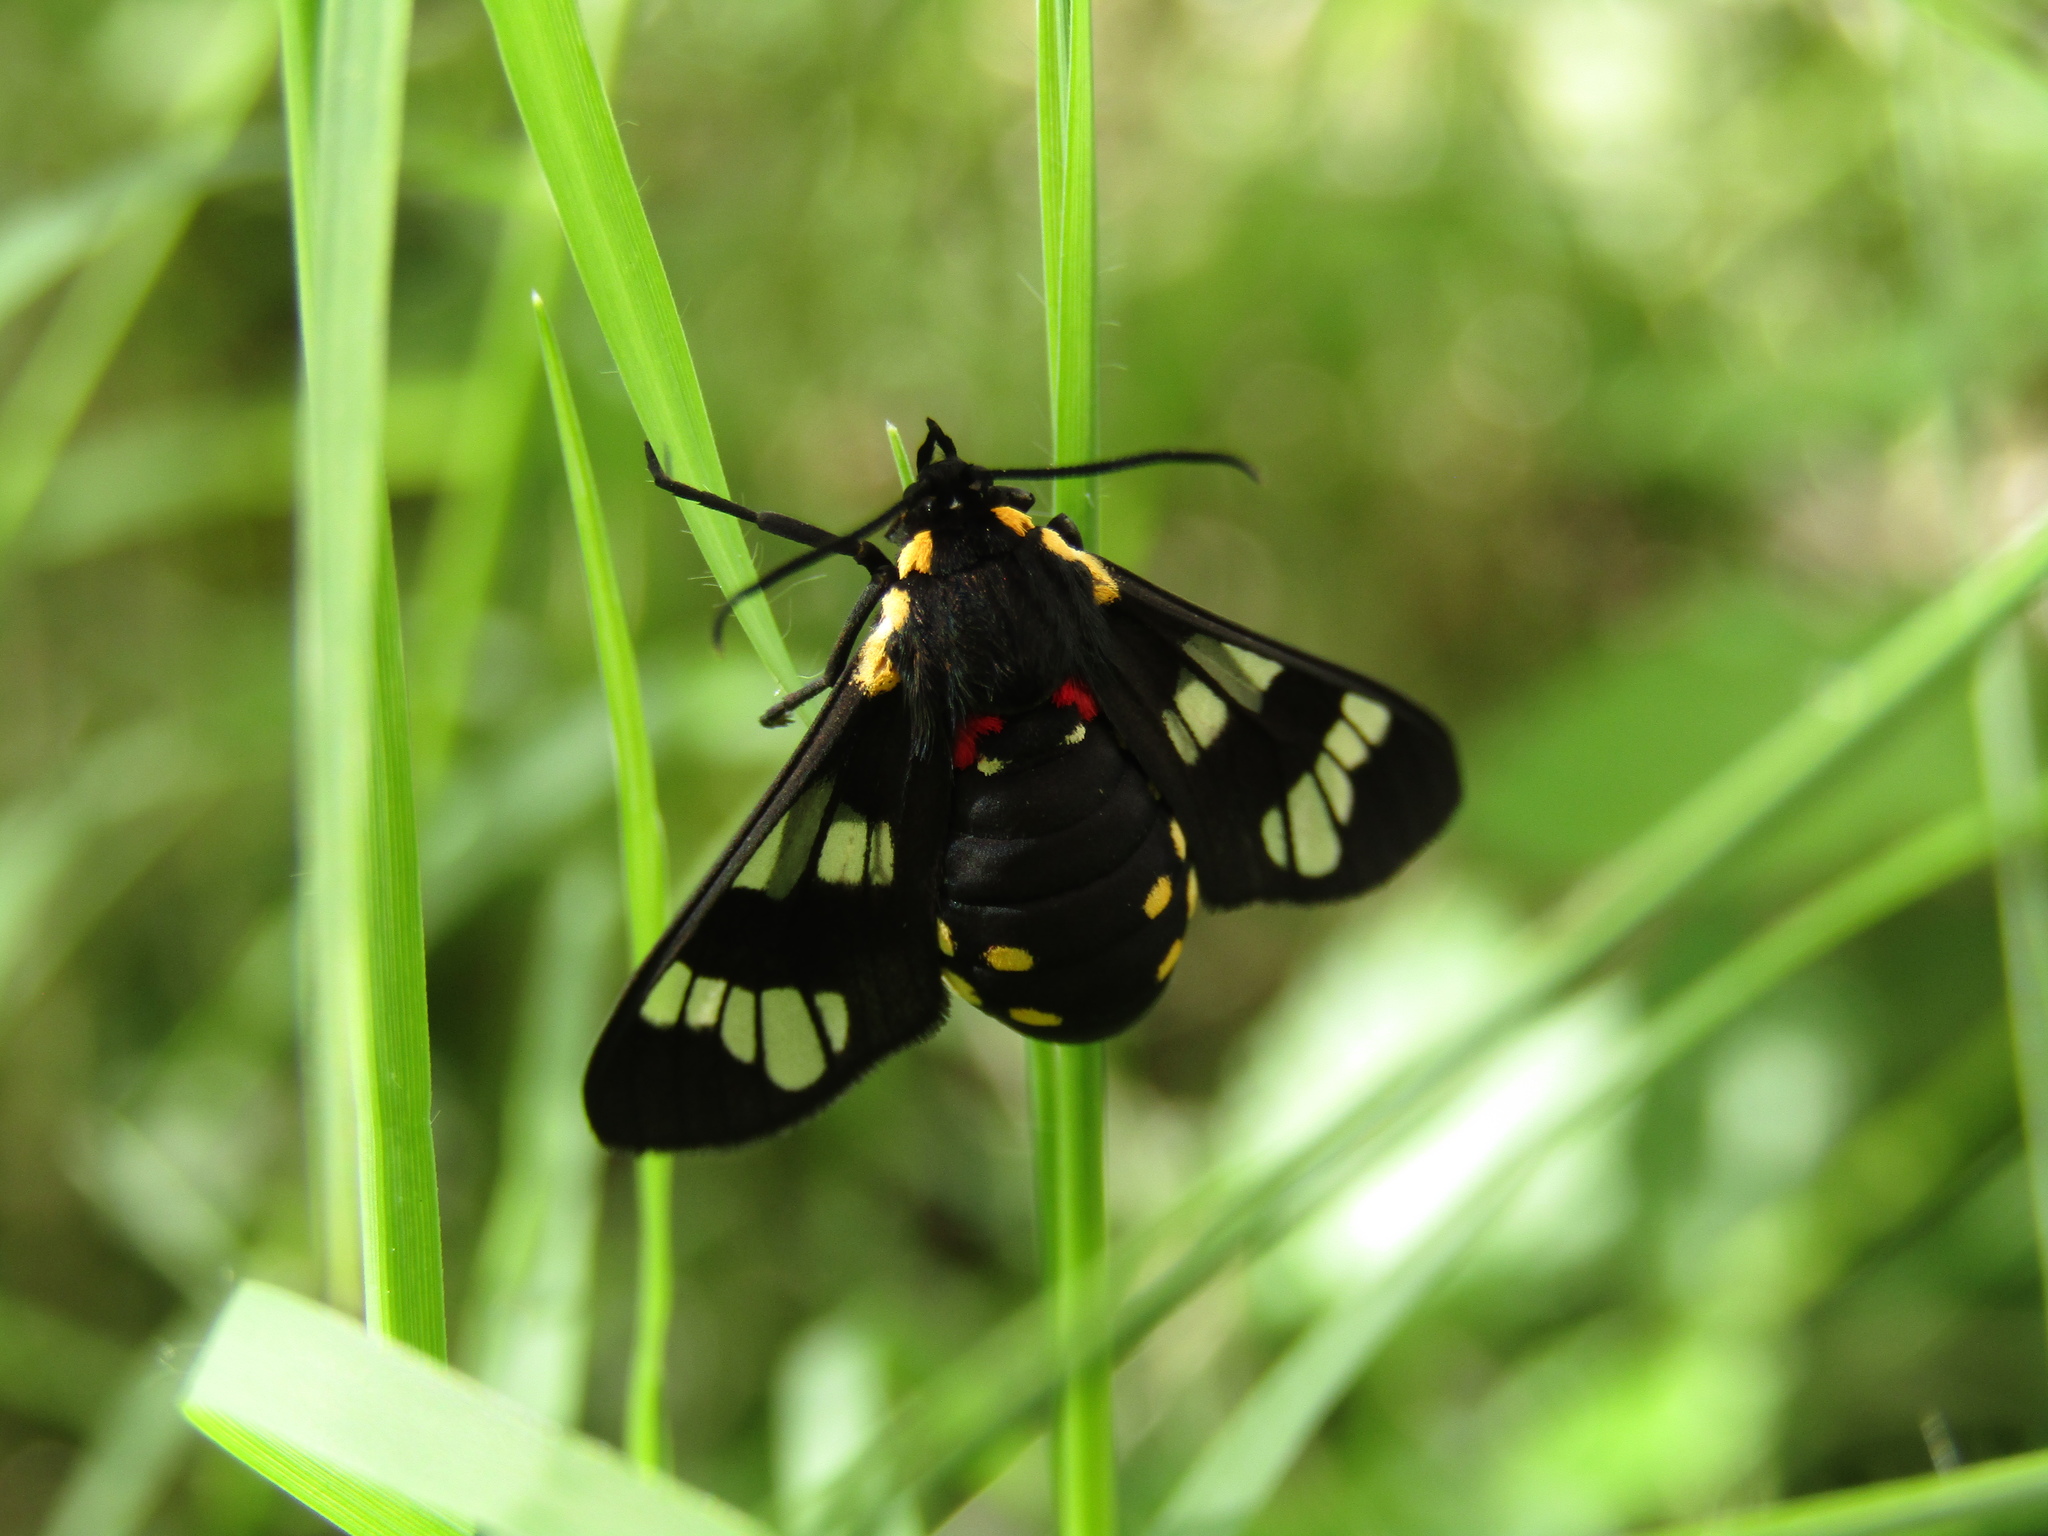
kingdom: Animalia
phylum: Arthropoda
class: Insecta
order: Lepidoptera
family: Erebidae
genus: Eurata
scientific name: Eurata hermione
